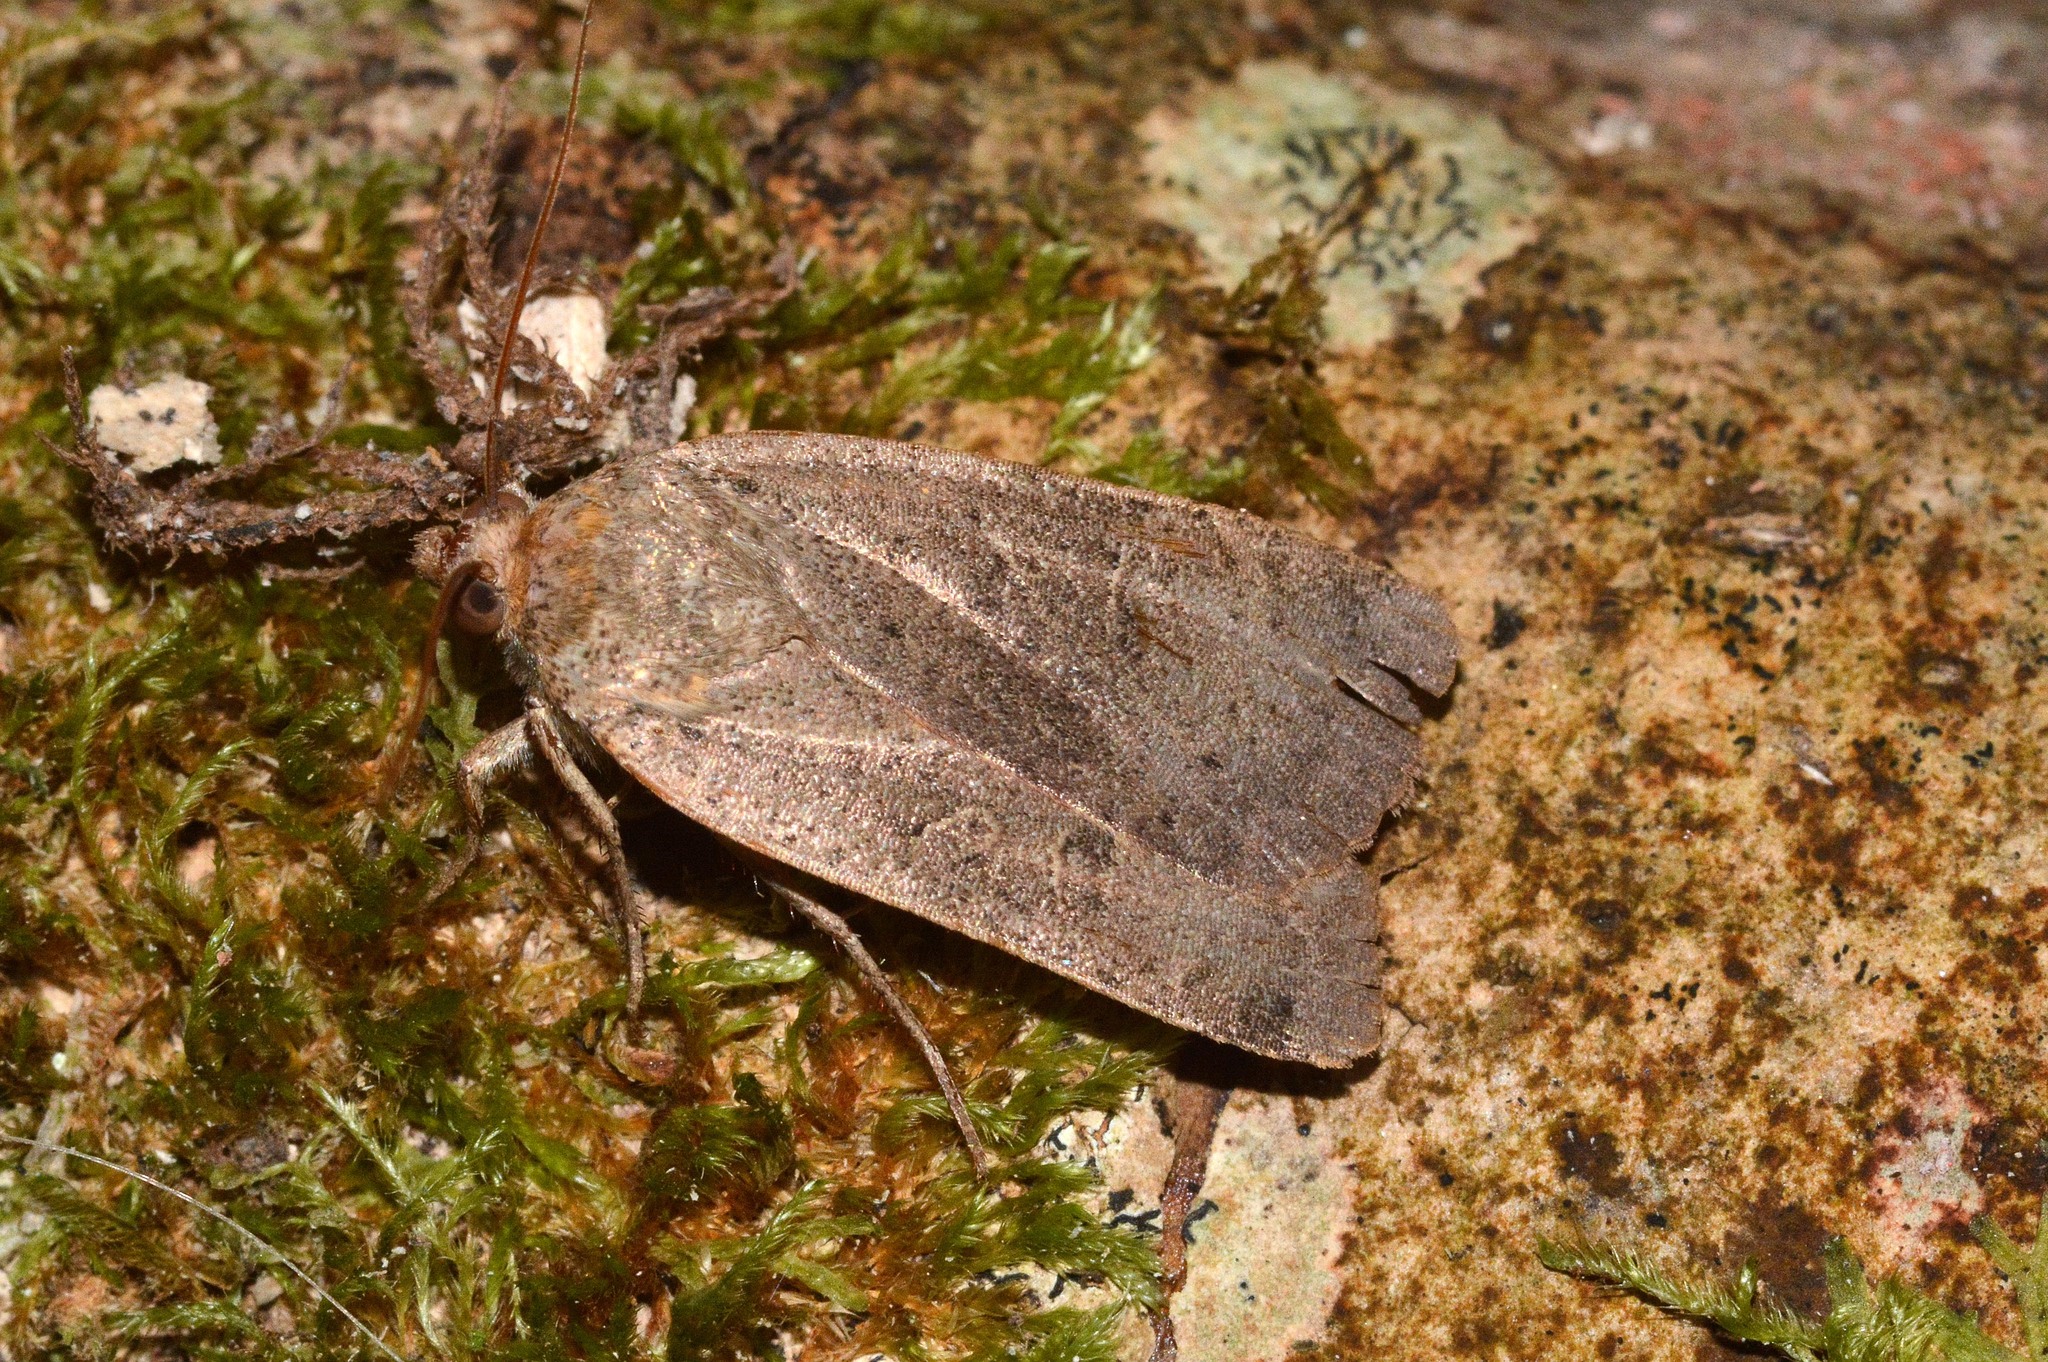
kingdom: Animalia
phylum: Arthropoda
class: Insecta
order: Lepidoptera
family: Noctuidae
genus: Noctua
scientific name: Noctua comes
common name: Lesser yellow underwing
